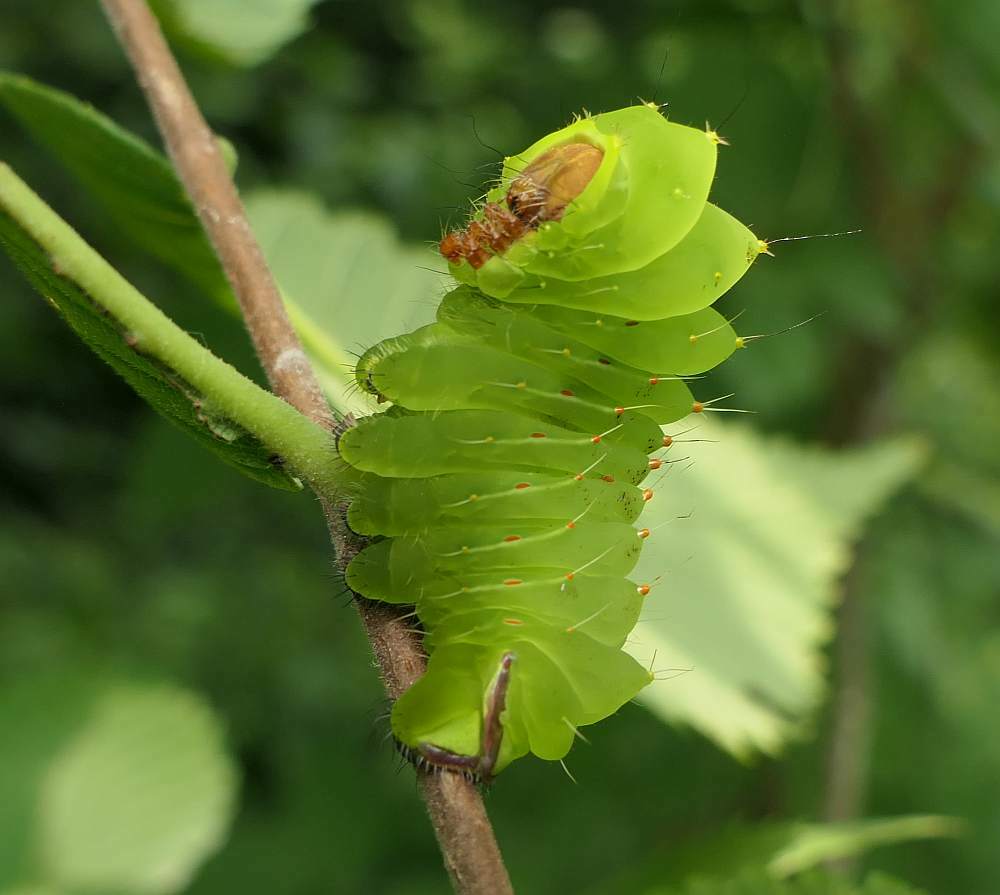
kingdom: Animalia
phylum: Arthropoda
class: Insecta
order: Lepidoptera
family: Saturniidae
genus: Antheraea
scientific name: Antheraea polyphemus
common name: Polyphemus moth
